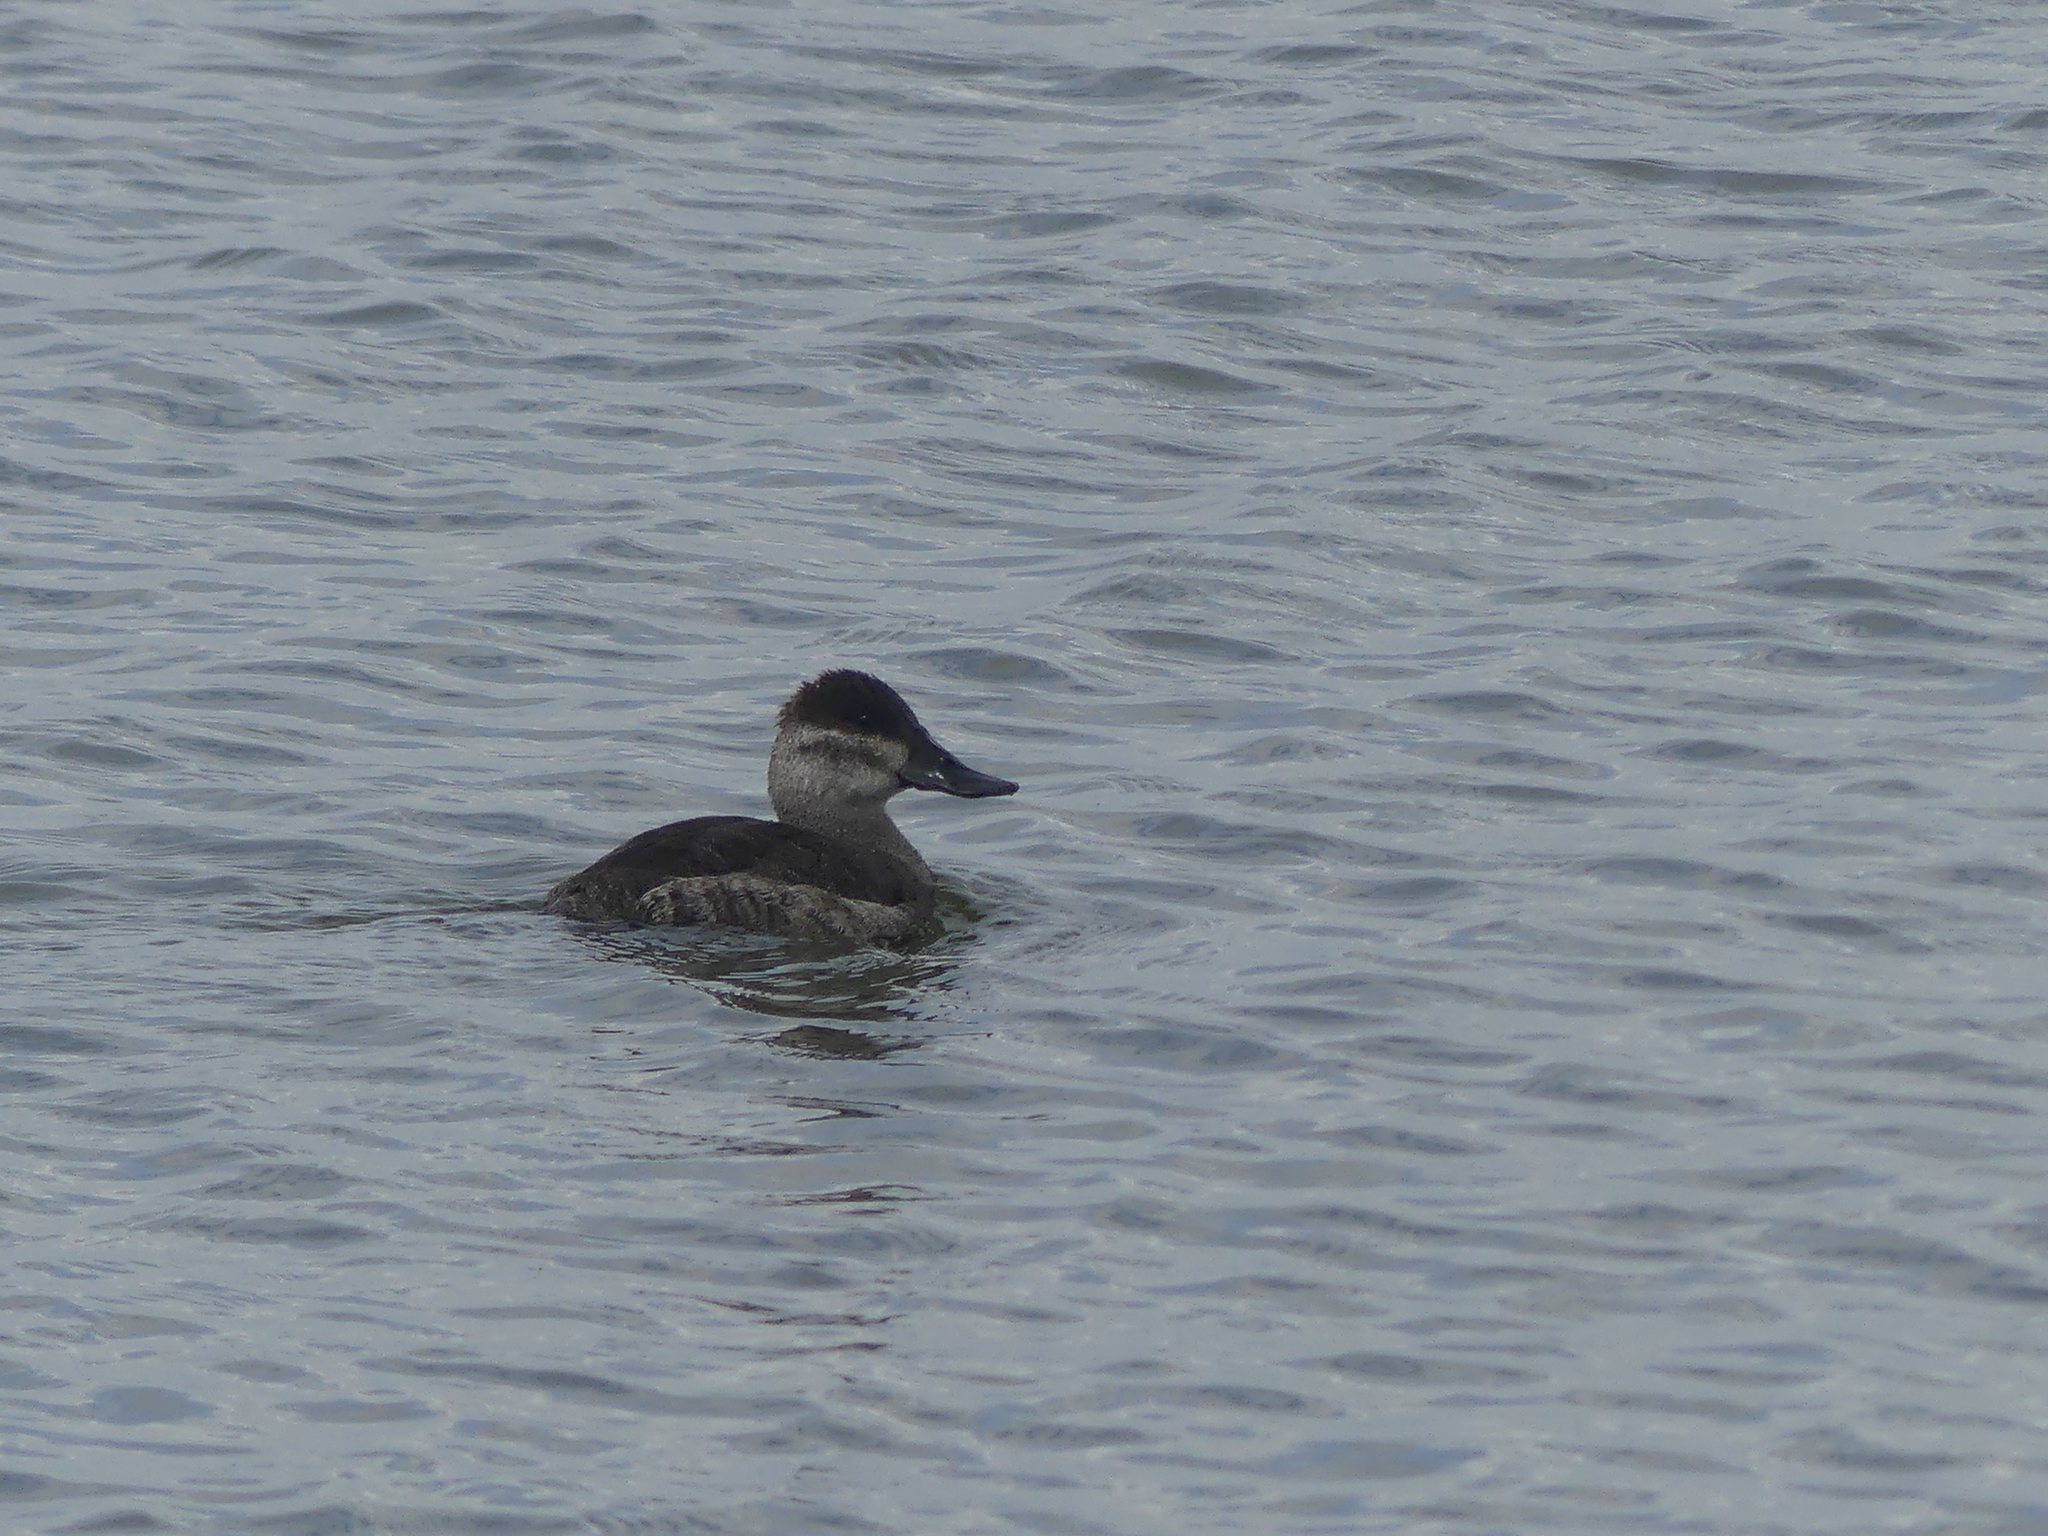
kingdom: Animalia
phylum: Chordata
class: Aves
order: Anseriformes
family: Anatidae
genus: Oxyura
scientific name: Oxyura jamaicensis
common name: Ruddy duck
